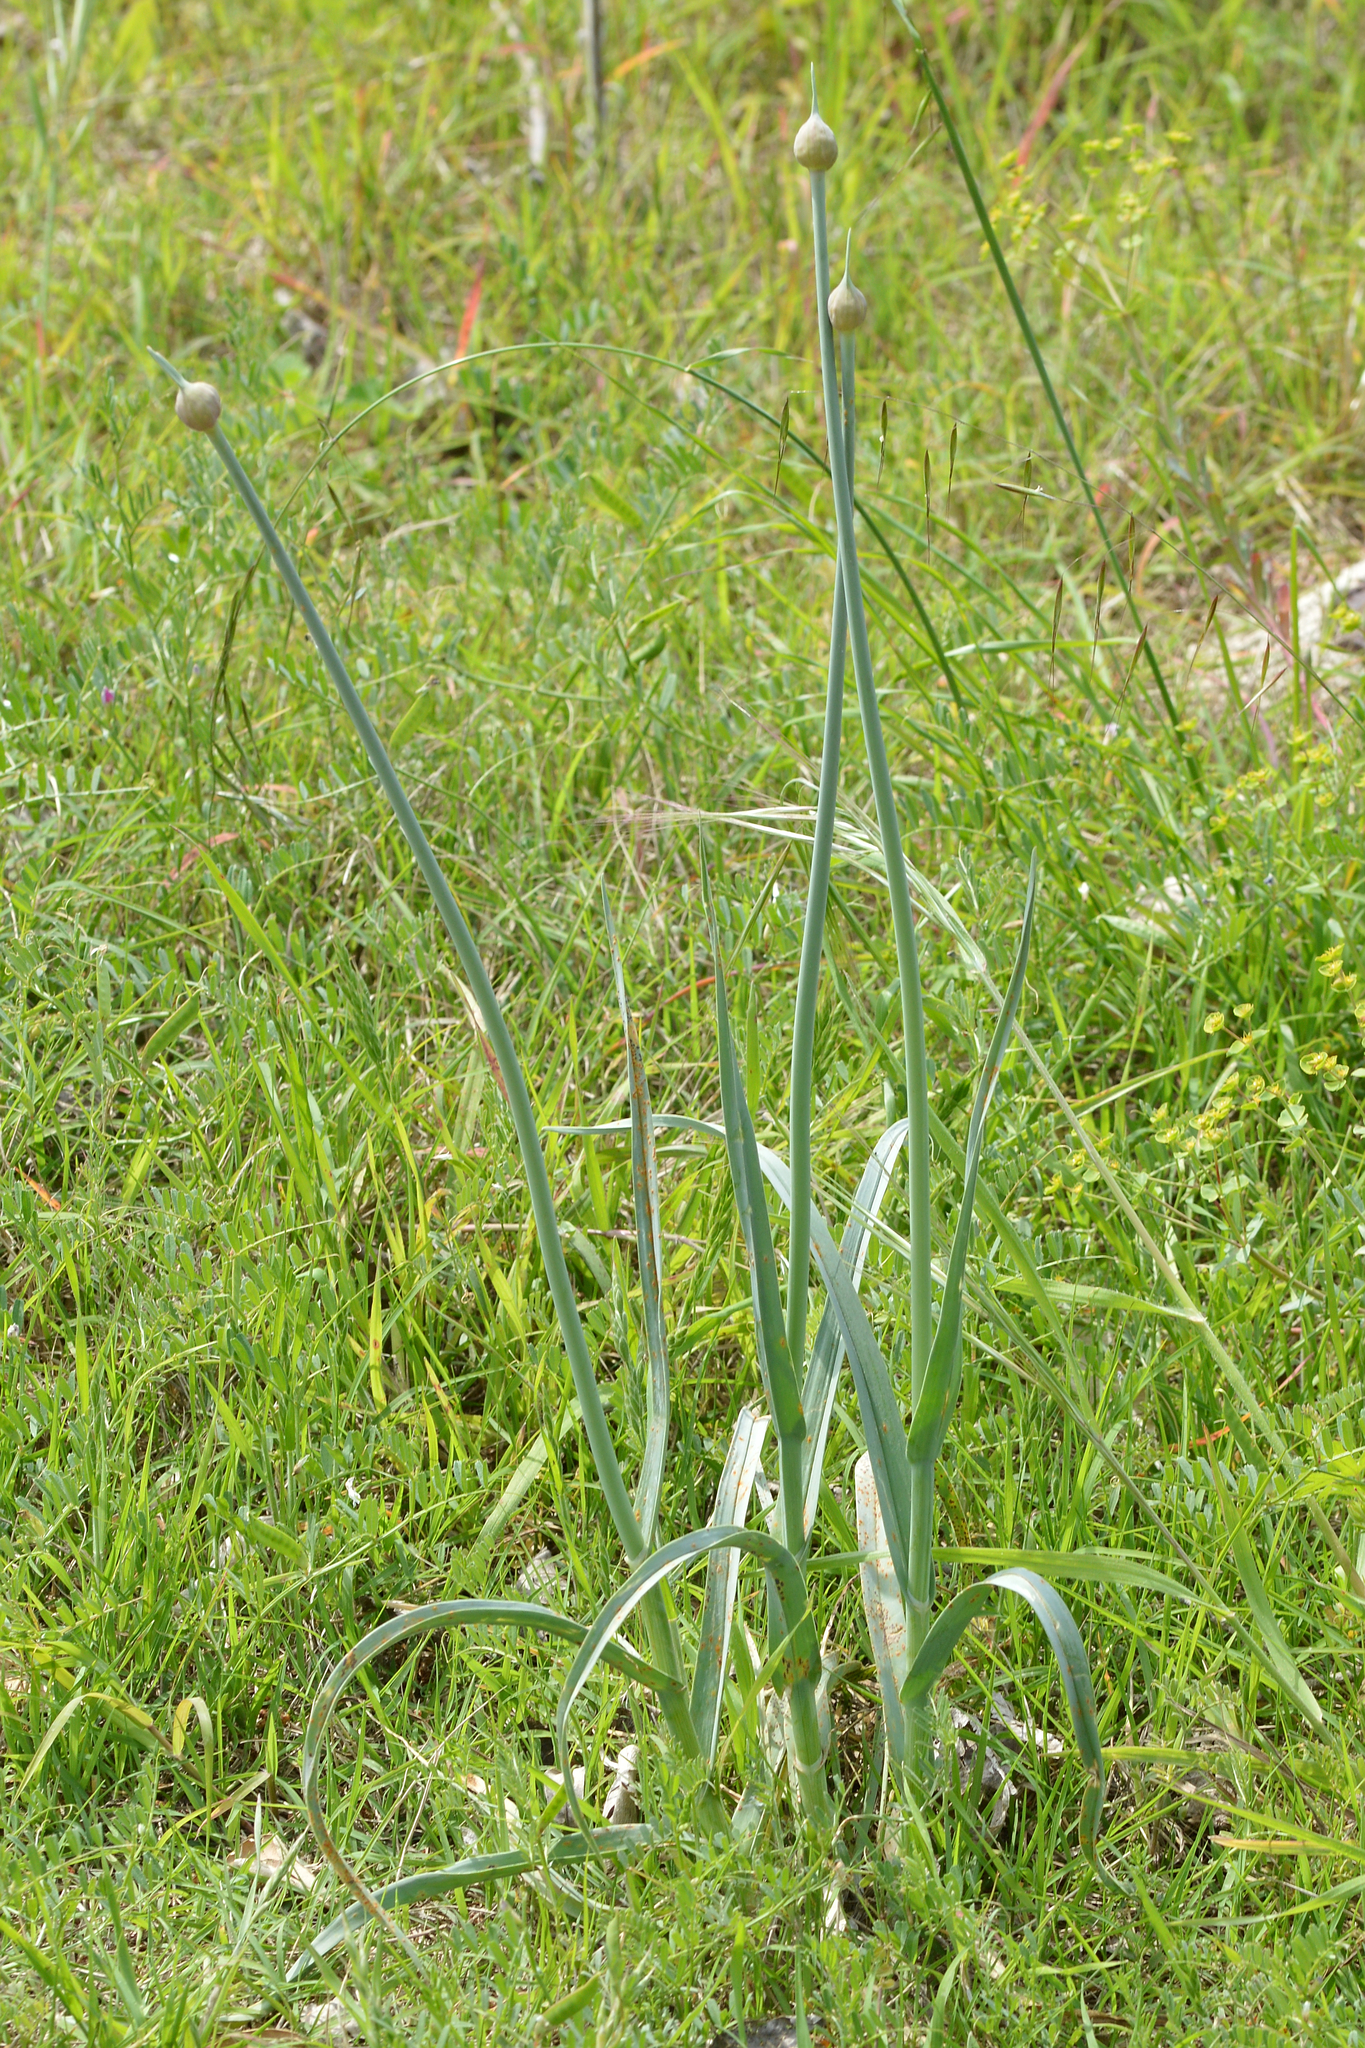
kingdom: Plantae
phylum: Tracheophyta
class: Liliopsida
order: Asparagales
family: Amaryllidaceae
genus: Allium
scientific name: Allium commutatum
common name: Sea garlic
